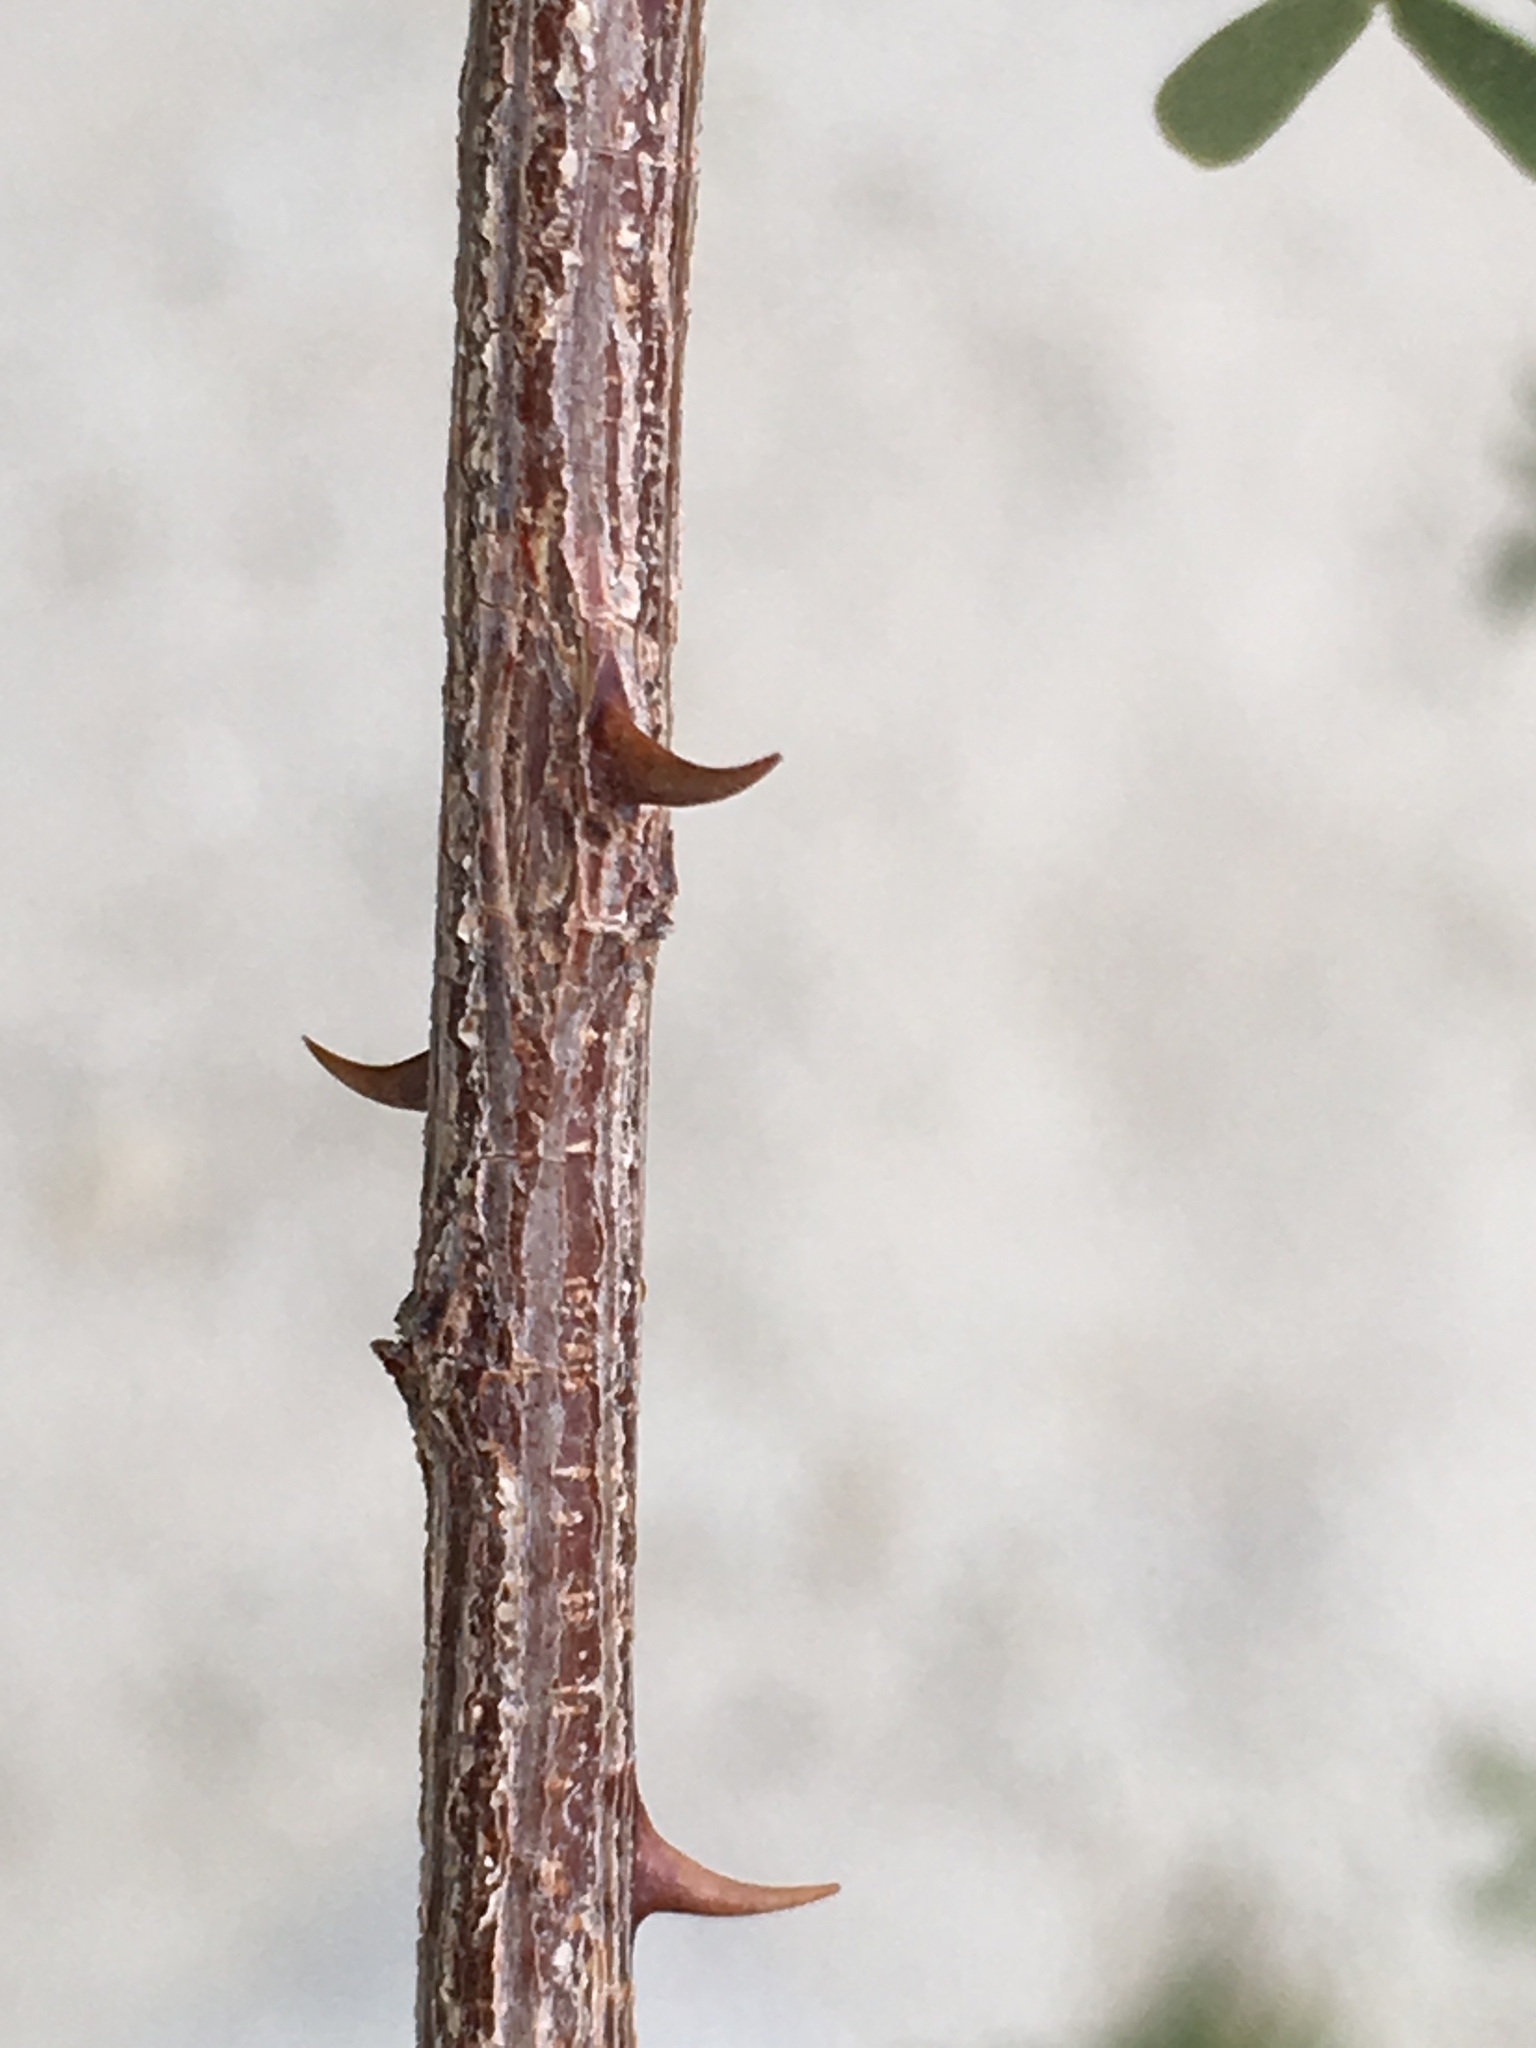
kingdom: Plantae
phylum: Tracheophyta
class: Magnoliopsida
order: Fabales
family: Fabaceae
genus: Senegalia
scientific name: Senegalia greggii
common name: Texas-mimosa
